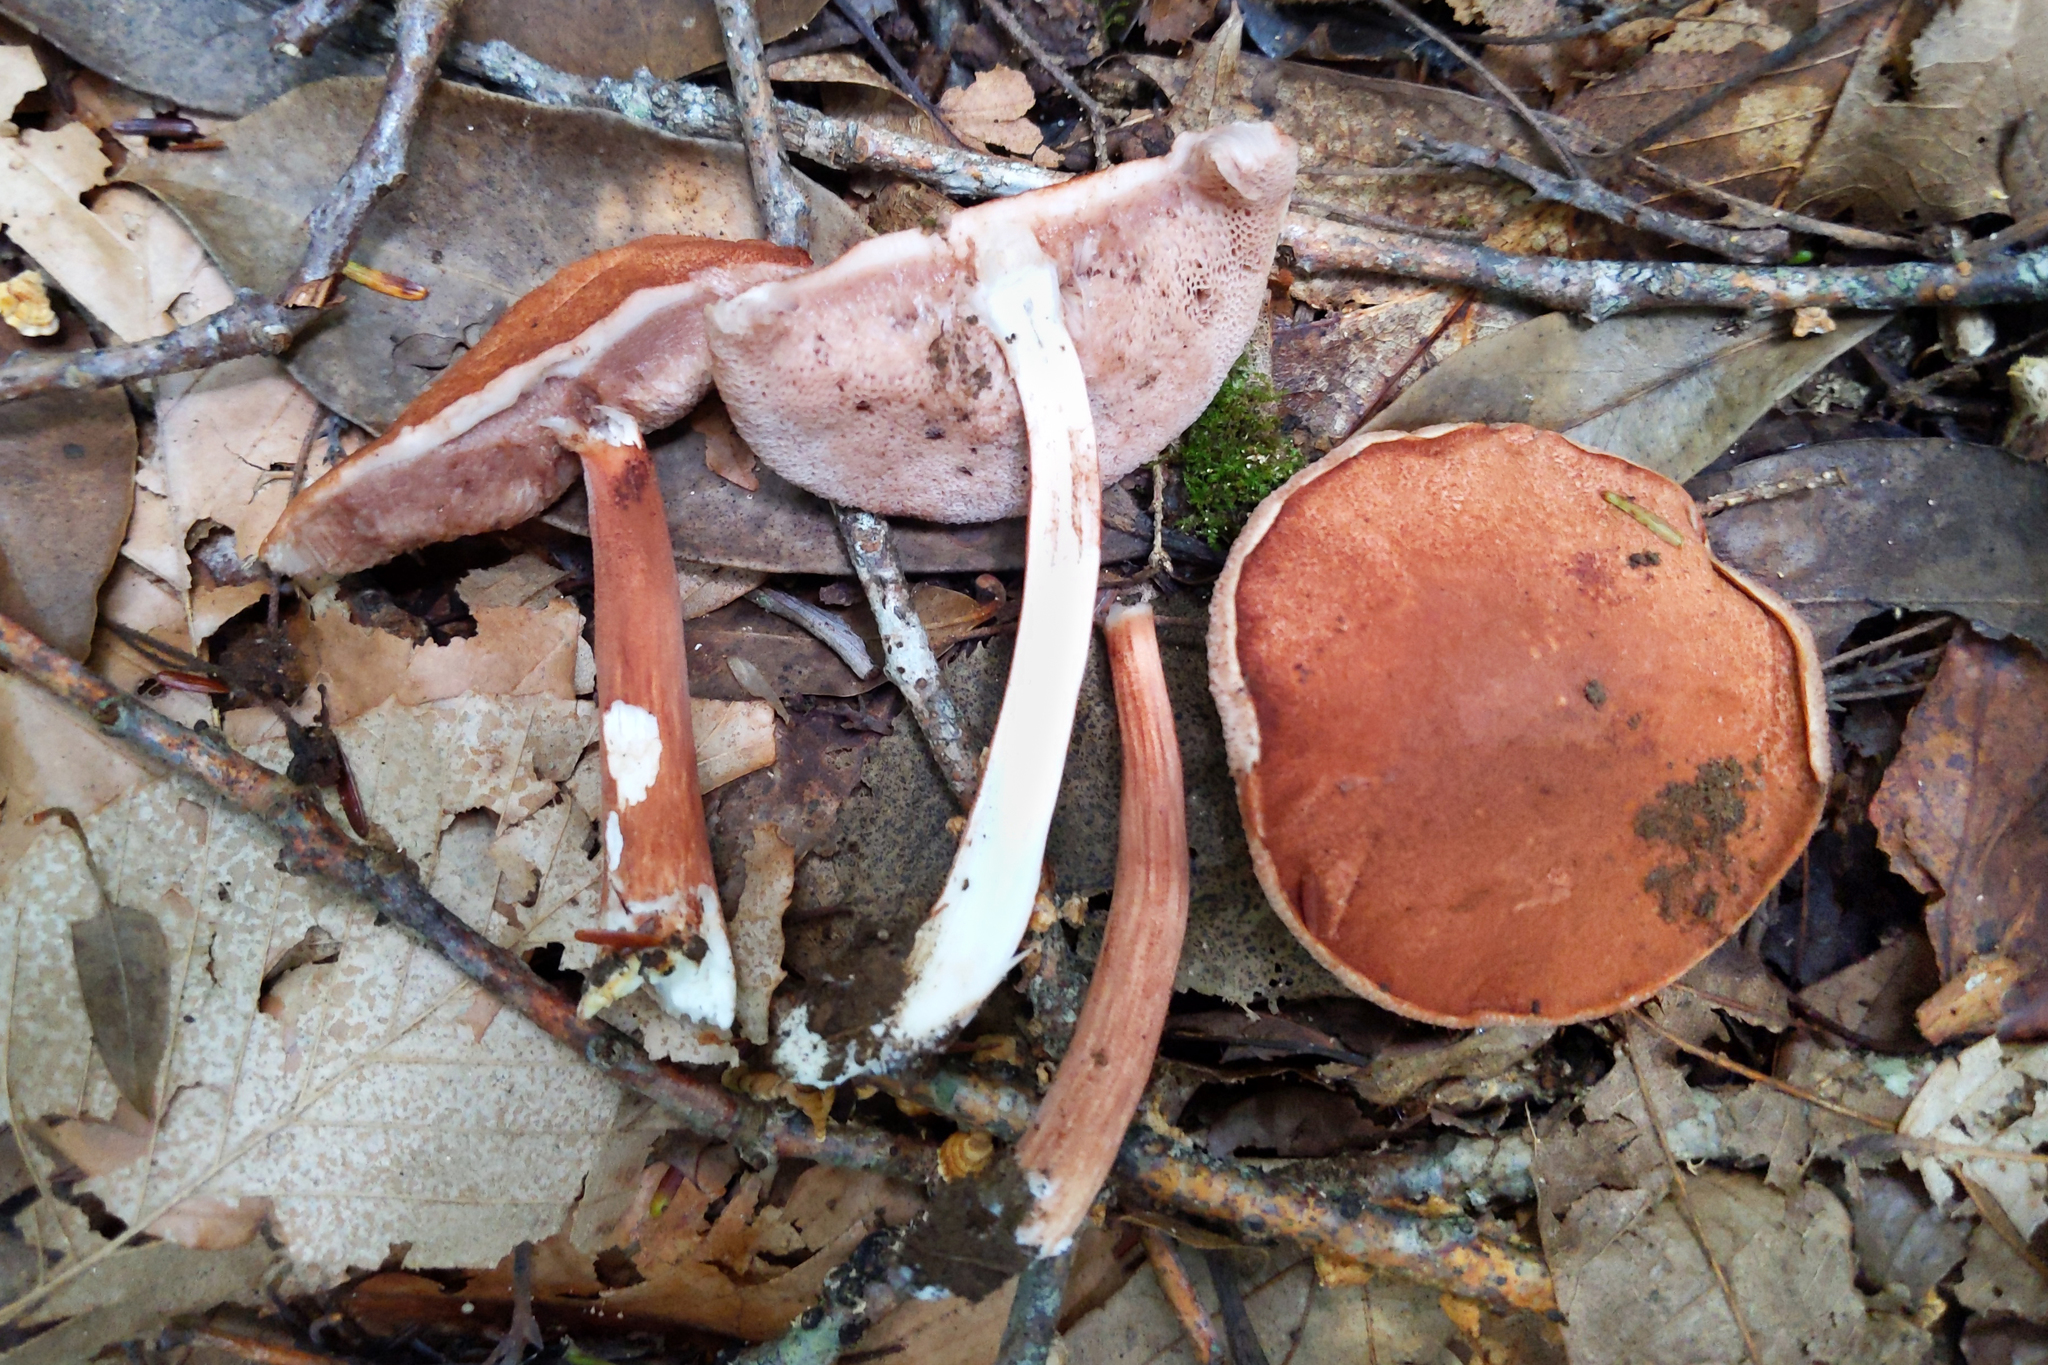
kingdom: Fungi
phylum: Basidiomycota
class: Agaricomycetes
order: Boletales
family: Boletaceae
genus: Austroboletus
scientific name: Austroboletus gracilis
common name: Graceful bolete
